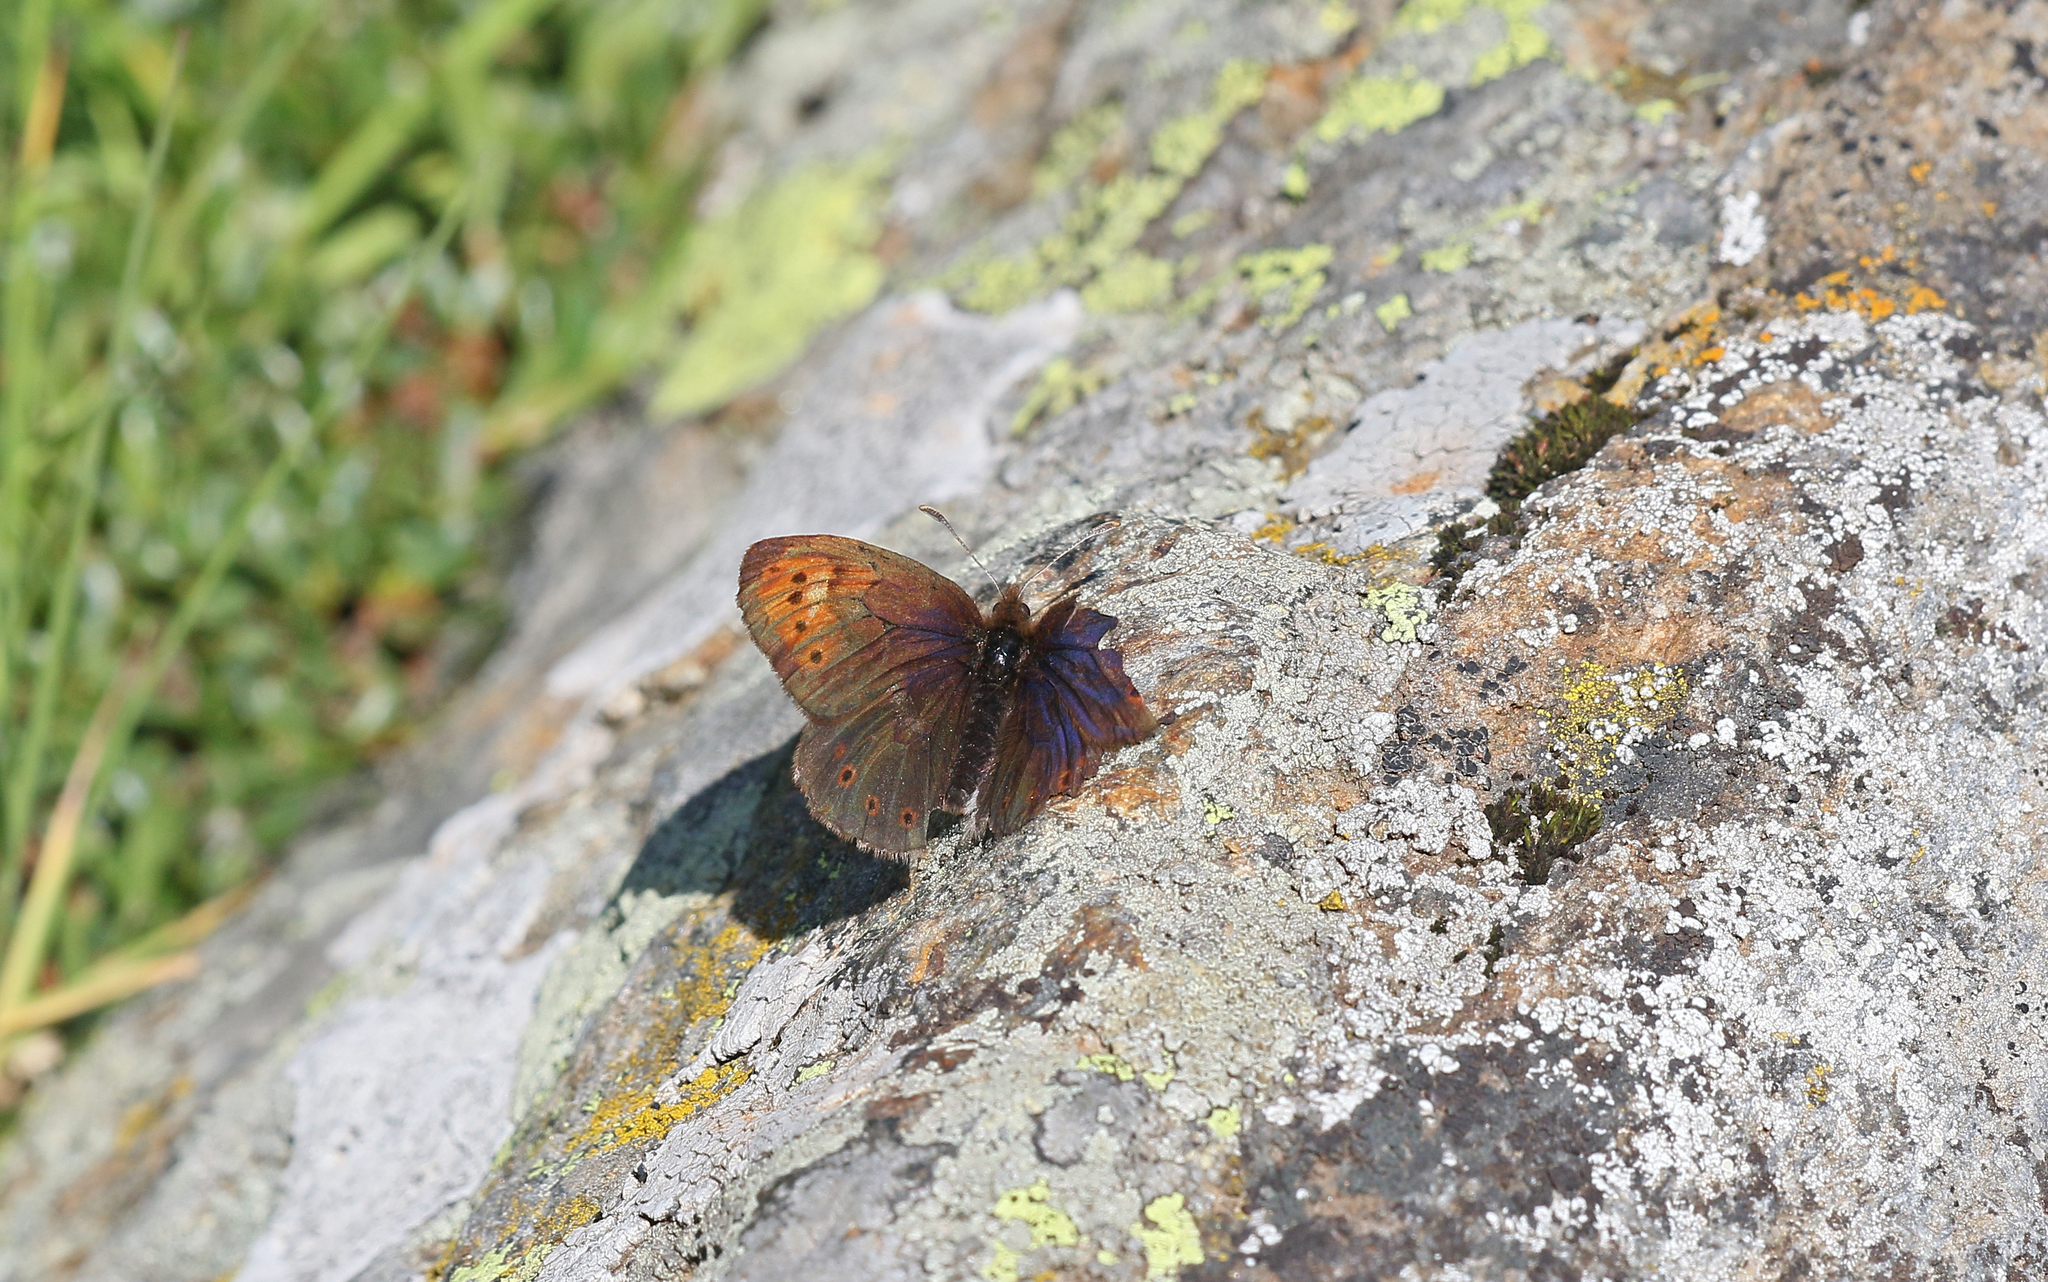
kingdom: Animalia
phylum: Arthropoda
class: Insecta
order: Lepidoptera
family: Nymphalidae
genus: Erebia
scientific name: Erebia pandrose
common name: Dewy ringlet
